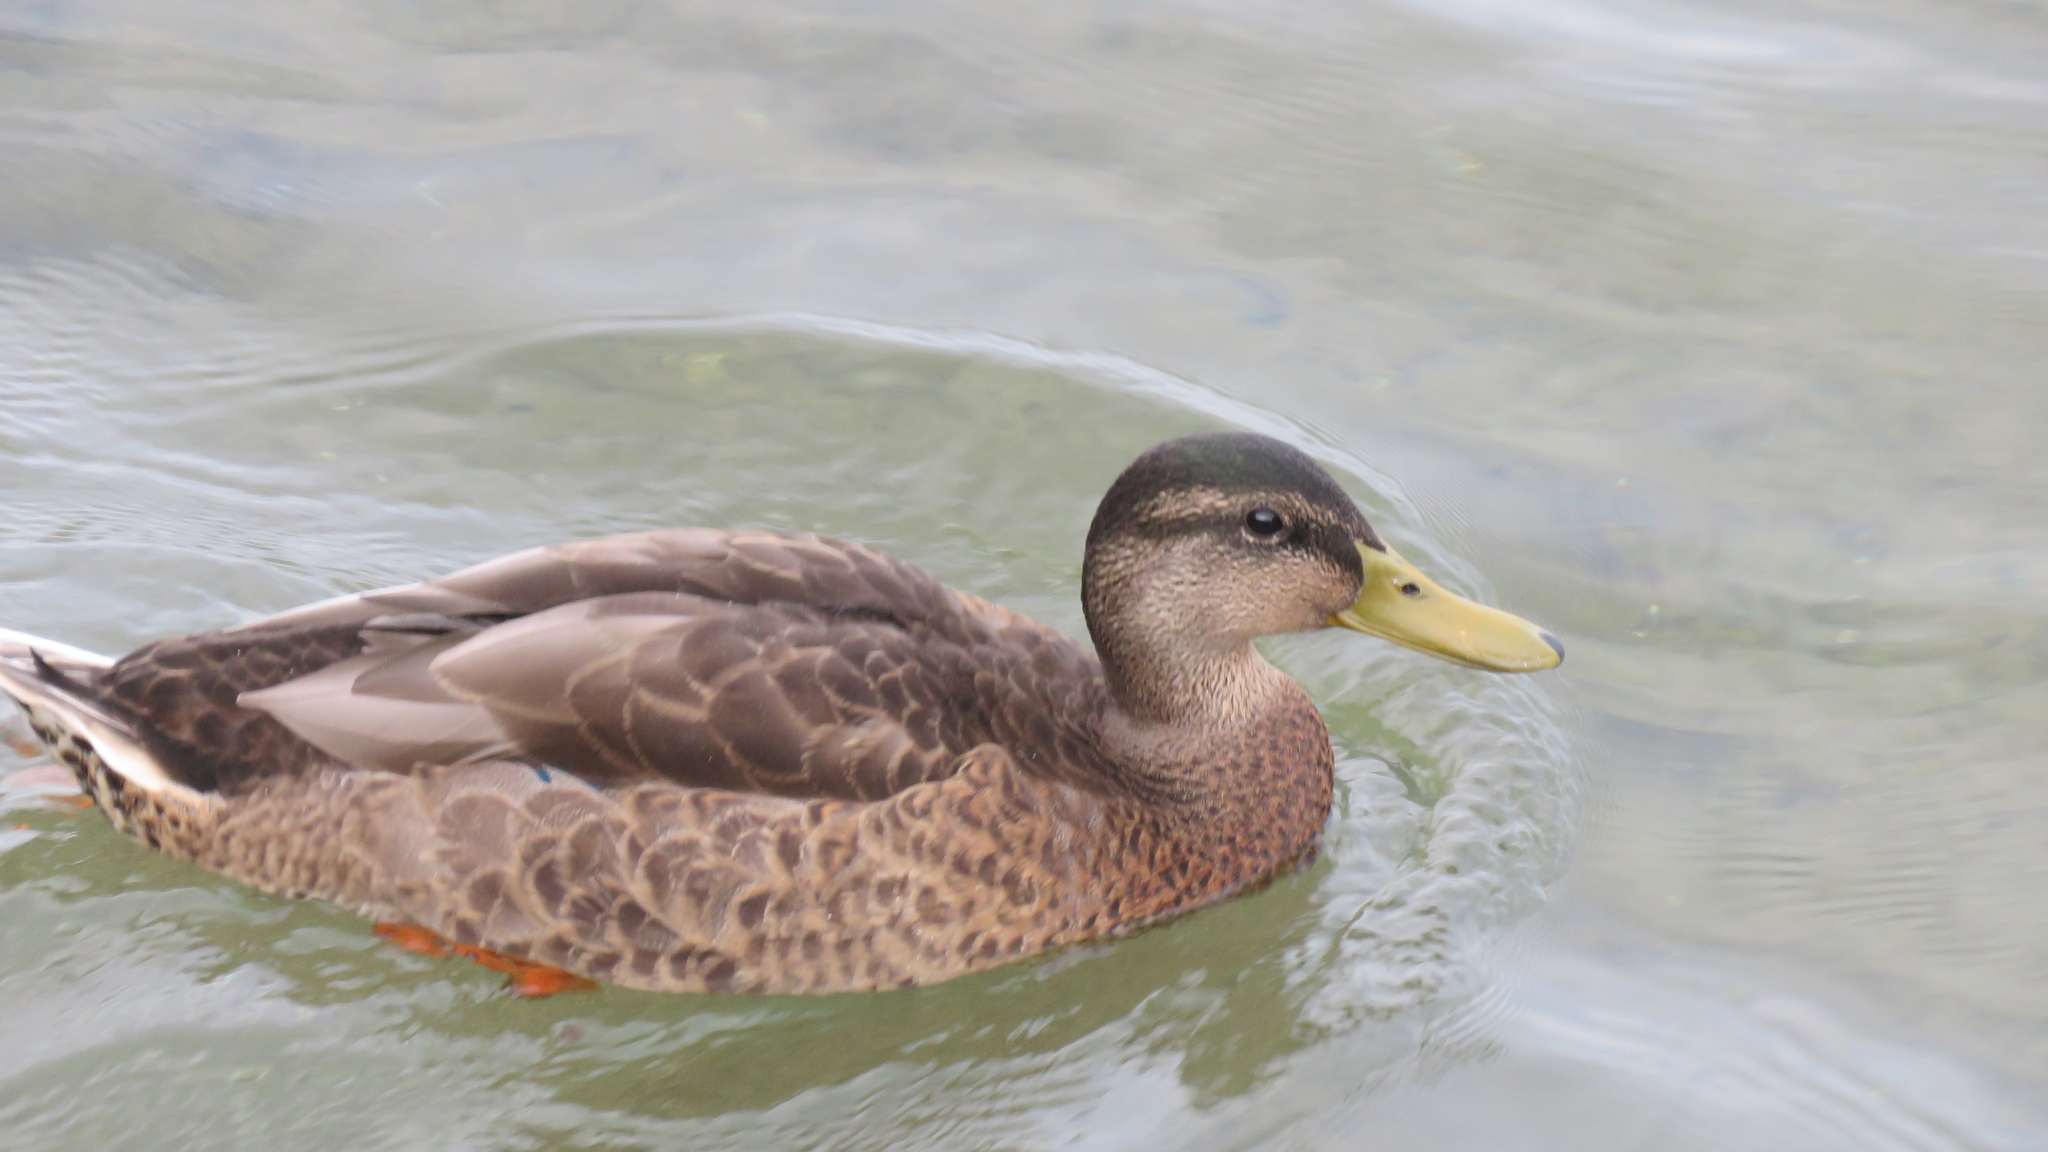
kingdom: Animalia
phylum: Chordata
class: Aves
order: Anseriformes
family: Anatidae
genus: Anas
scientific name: Anas platyrhynchos
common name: Mallard
